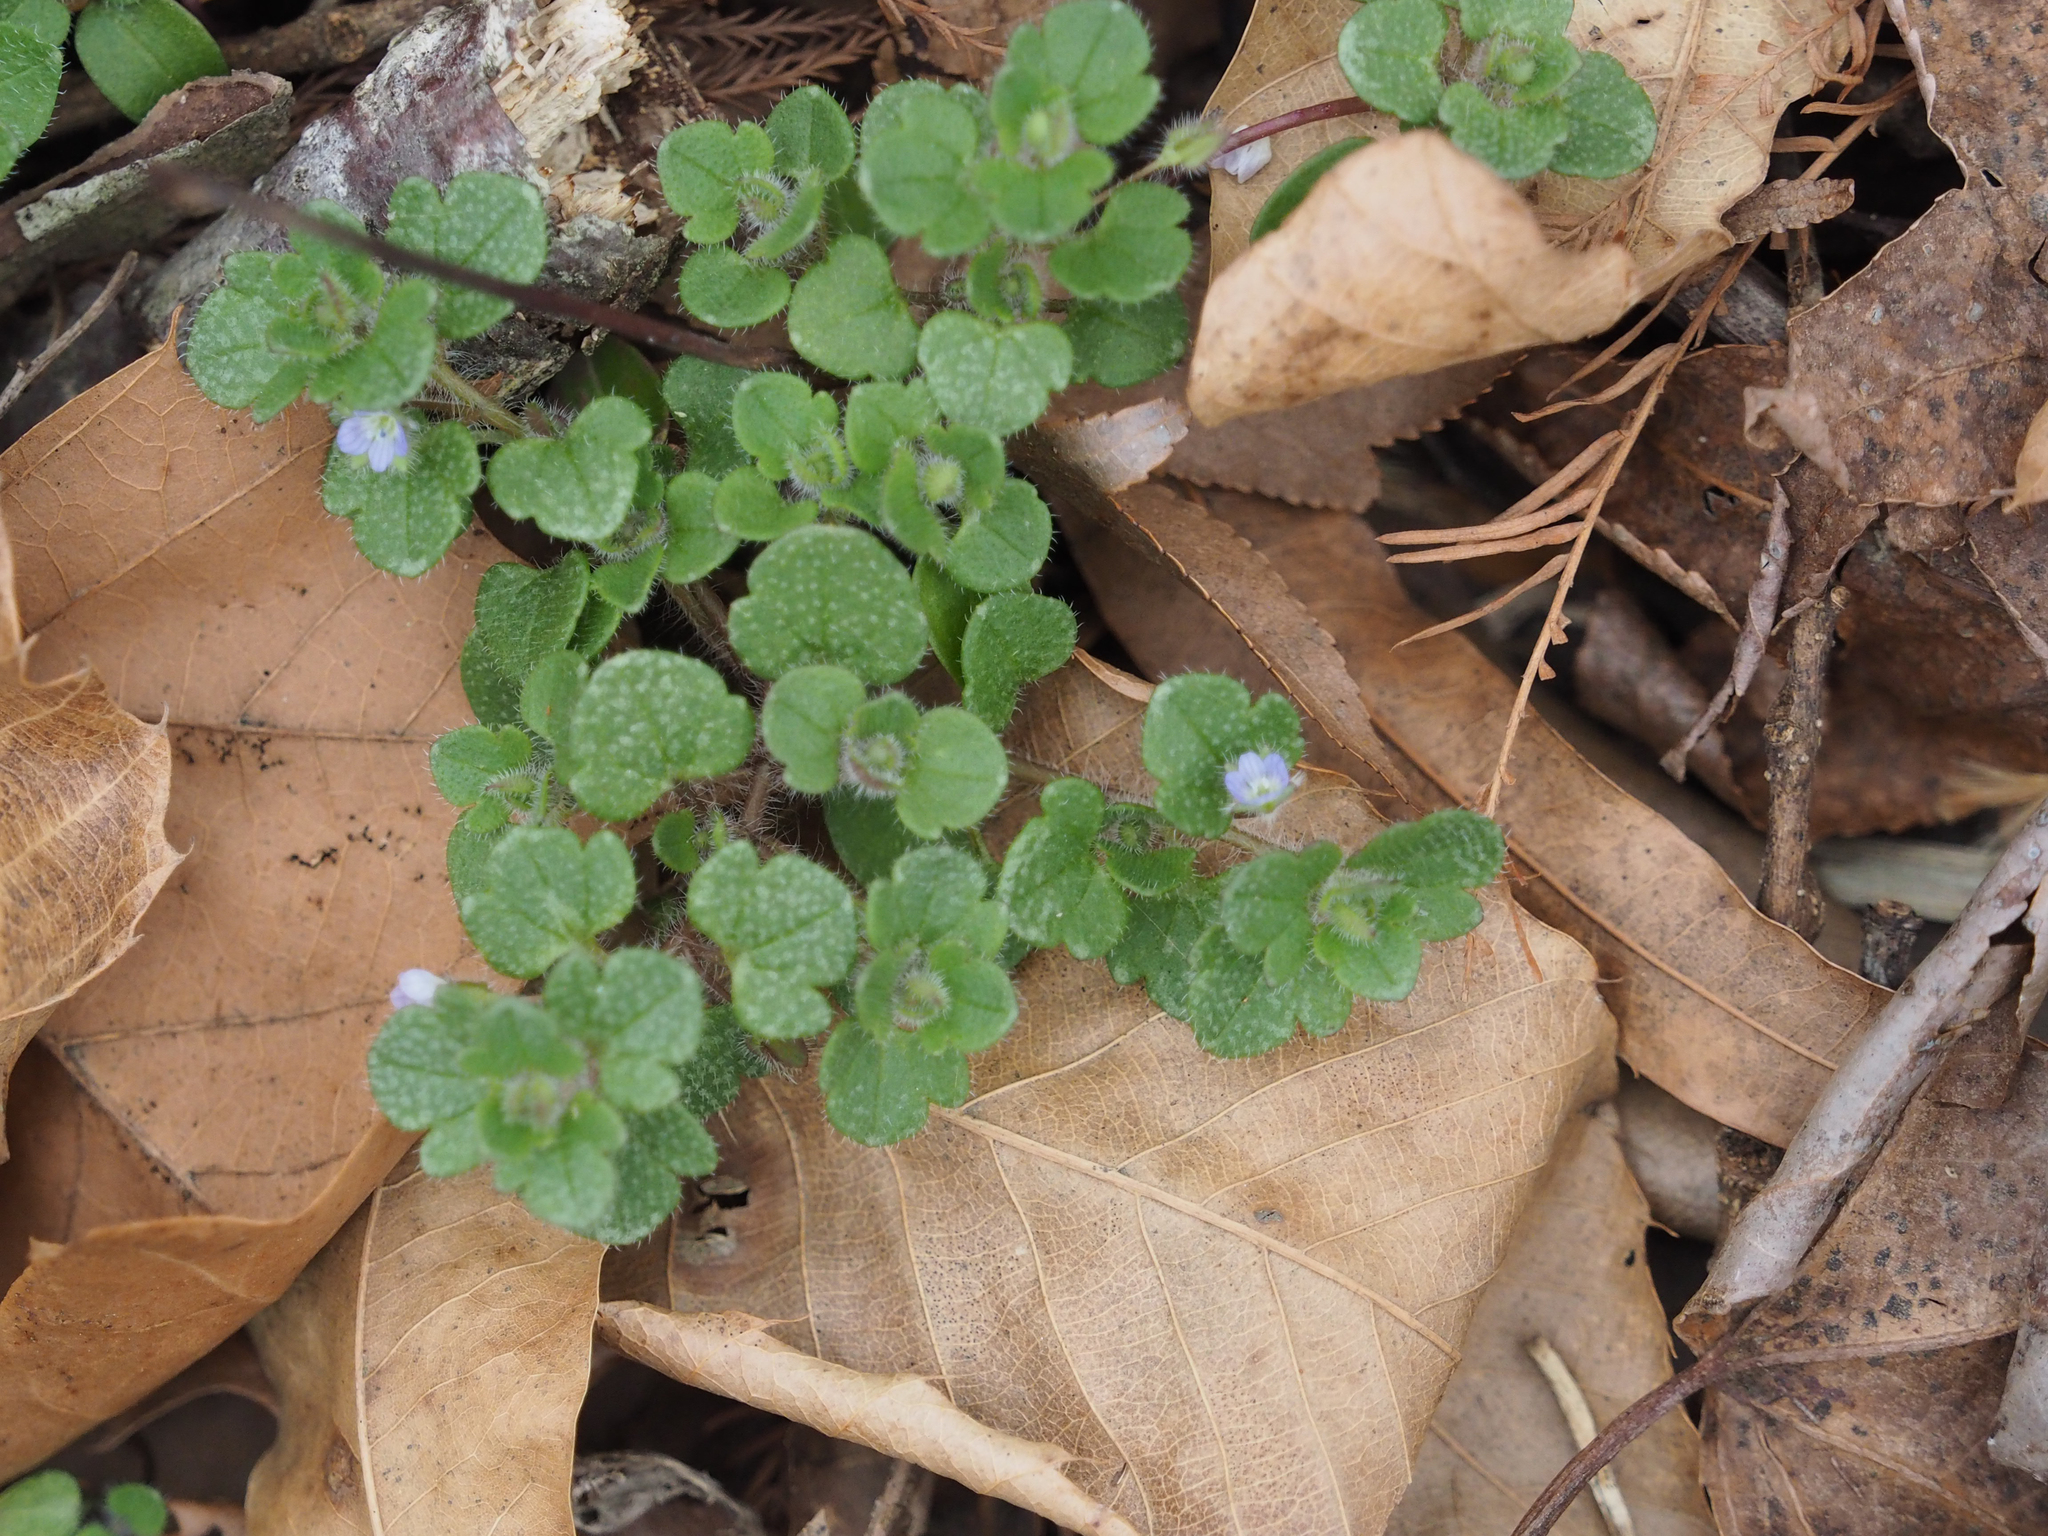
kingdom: Plantae
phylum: Tracheophyta
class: Magnoliopsida
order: Lamiales
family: Plantaginaceae
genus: Veronica
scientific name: Veronica hederifolia
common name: Ivy-leaved speedwell
